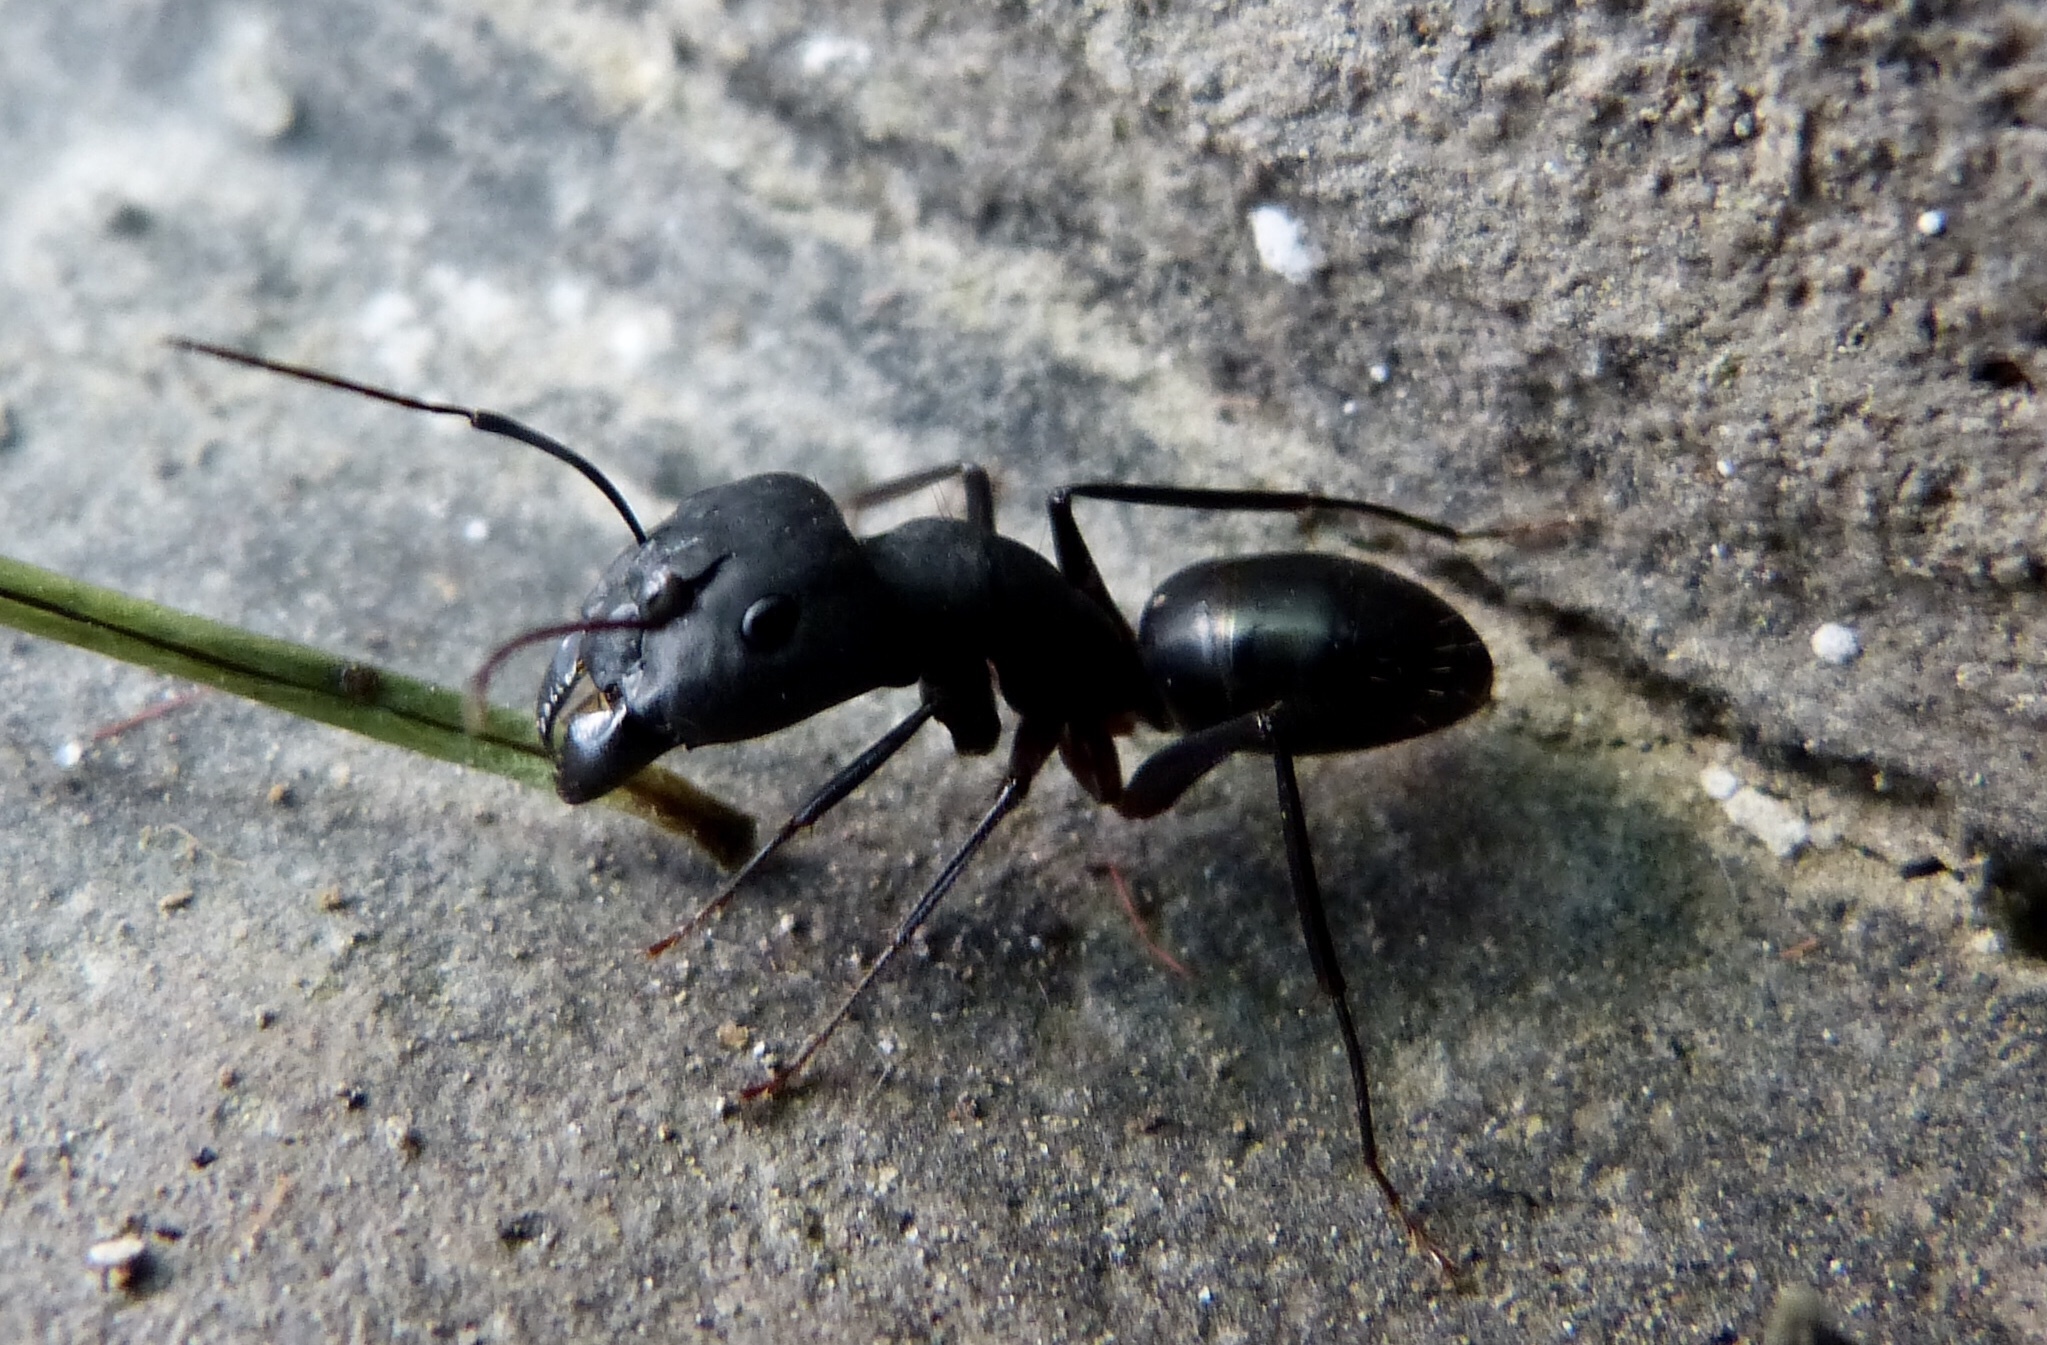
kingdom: Animalia
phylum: Arthropoda
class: Insecta
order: Hymenoptera
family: Formicidae
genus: Camponotus
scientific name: Camponotus compressus
